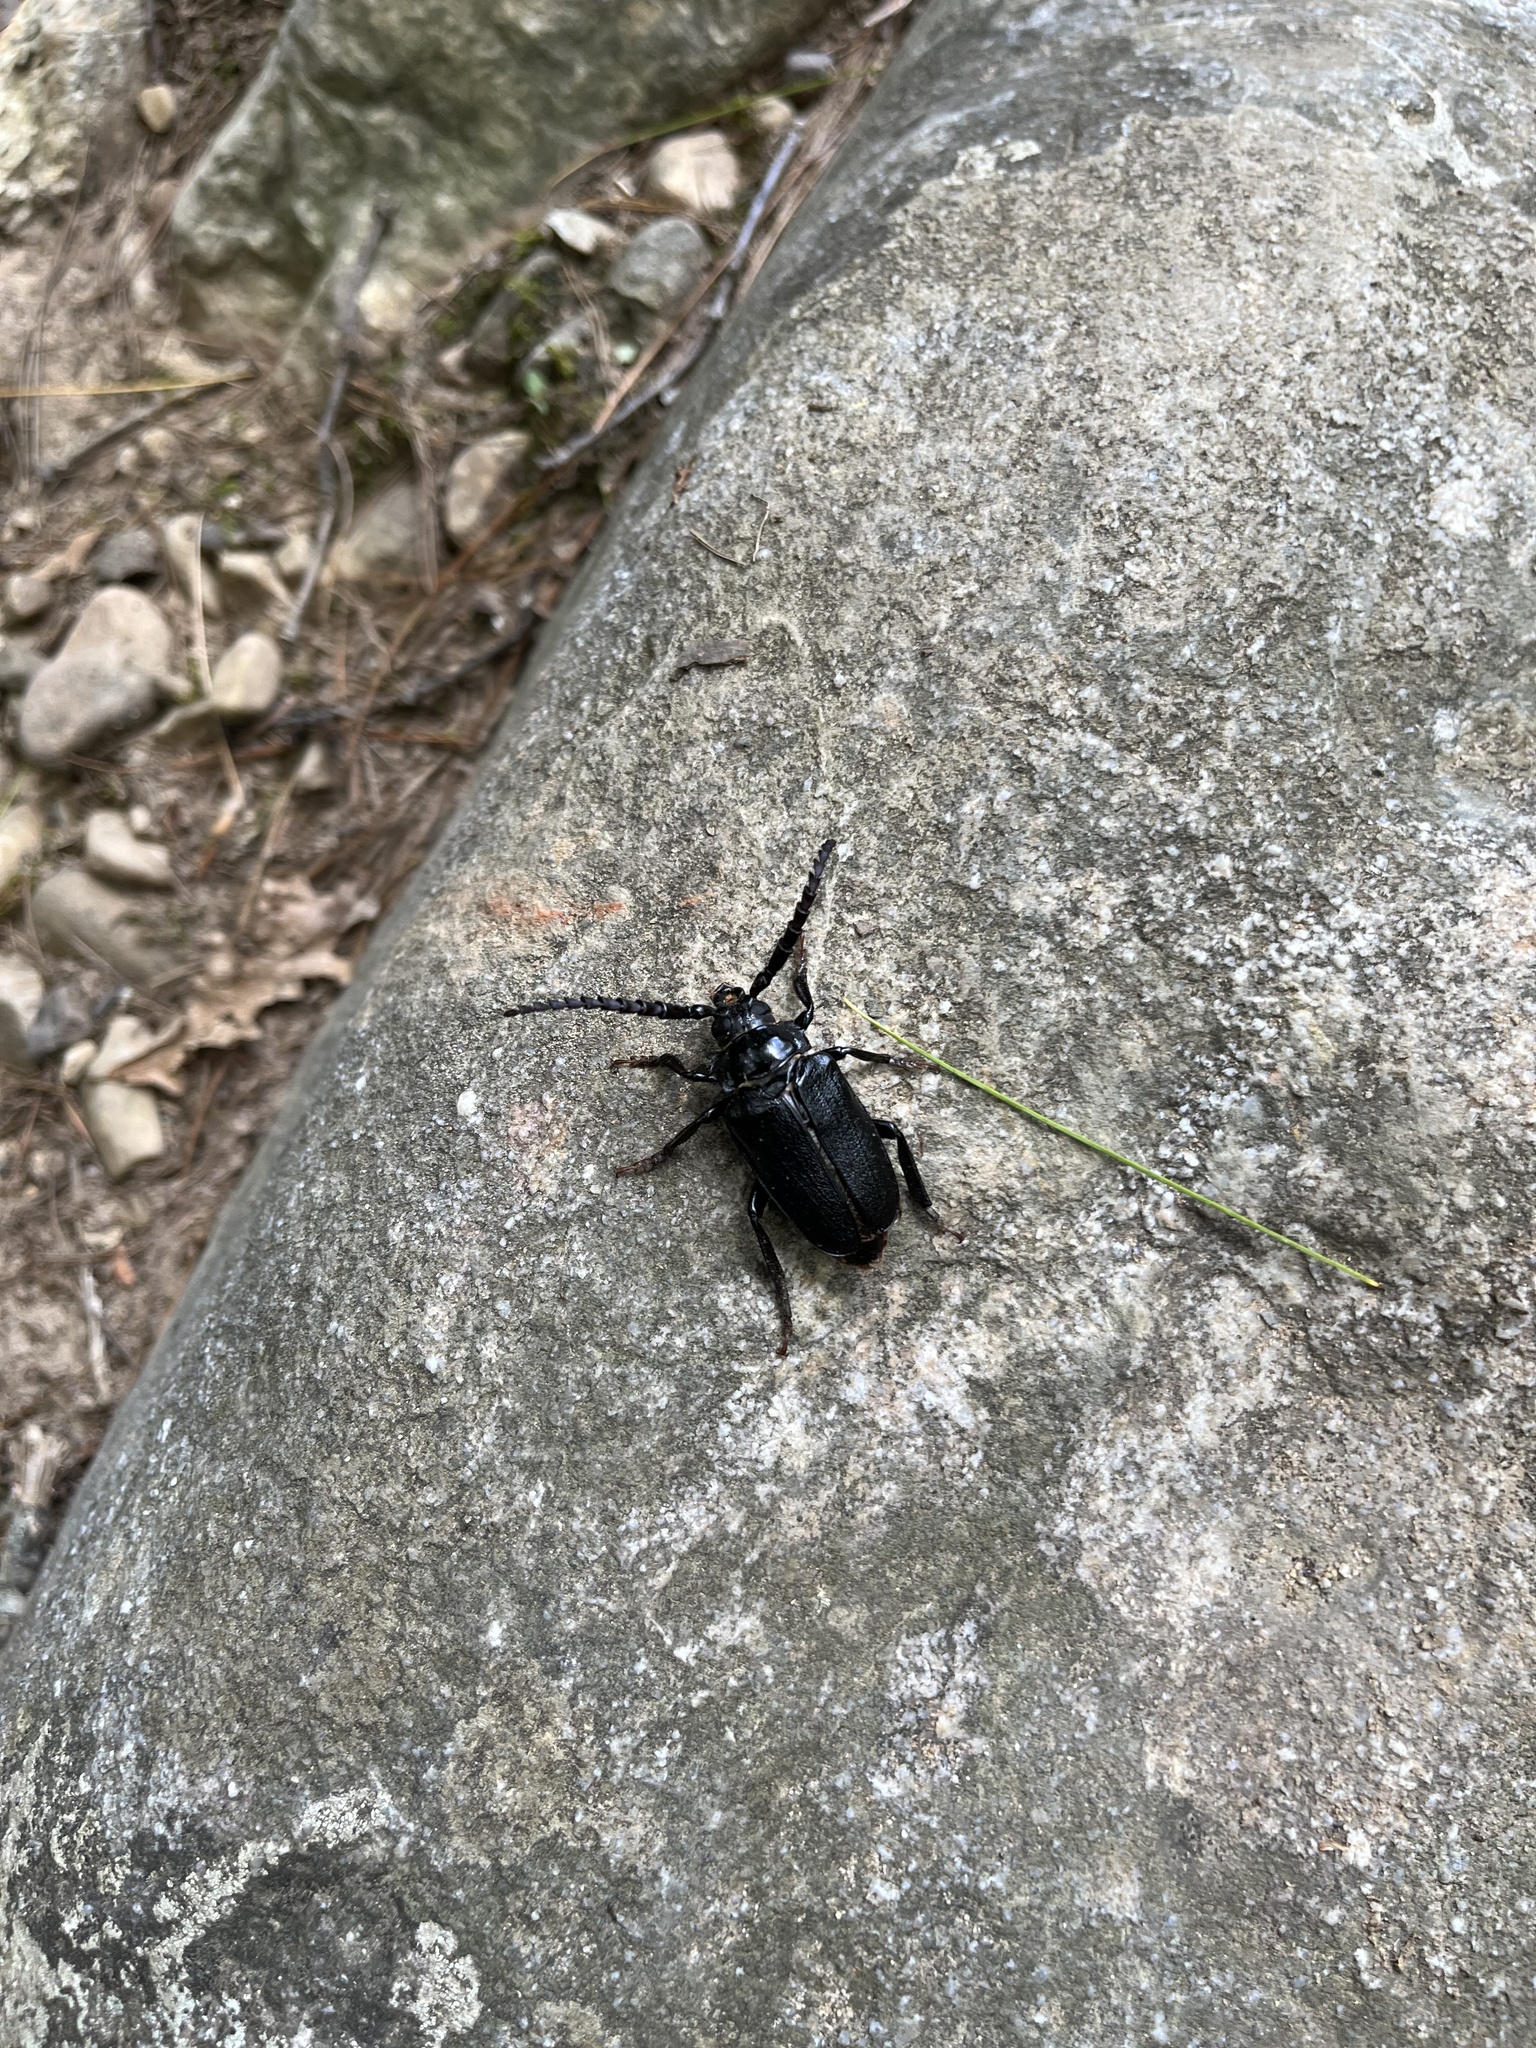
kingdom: Animalia
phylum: Arthropoda
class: Insecta
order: Coleoptera
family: Cerambycidae
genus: Prionus
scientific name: Prionus laticollis
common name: Broad necked prionus
